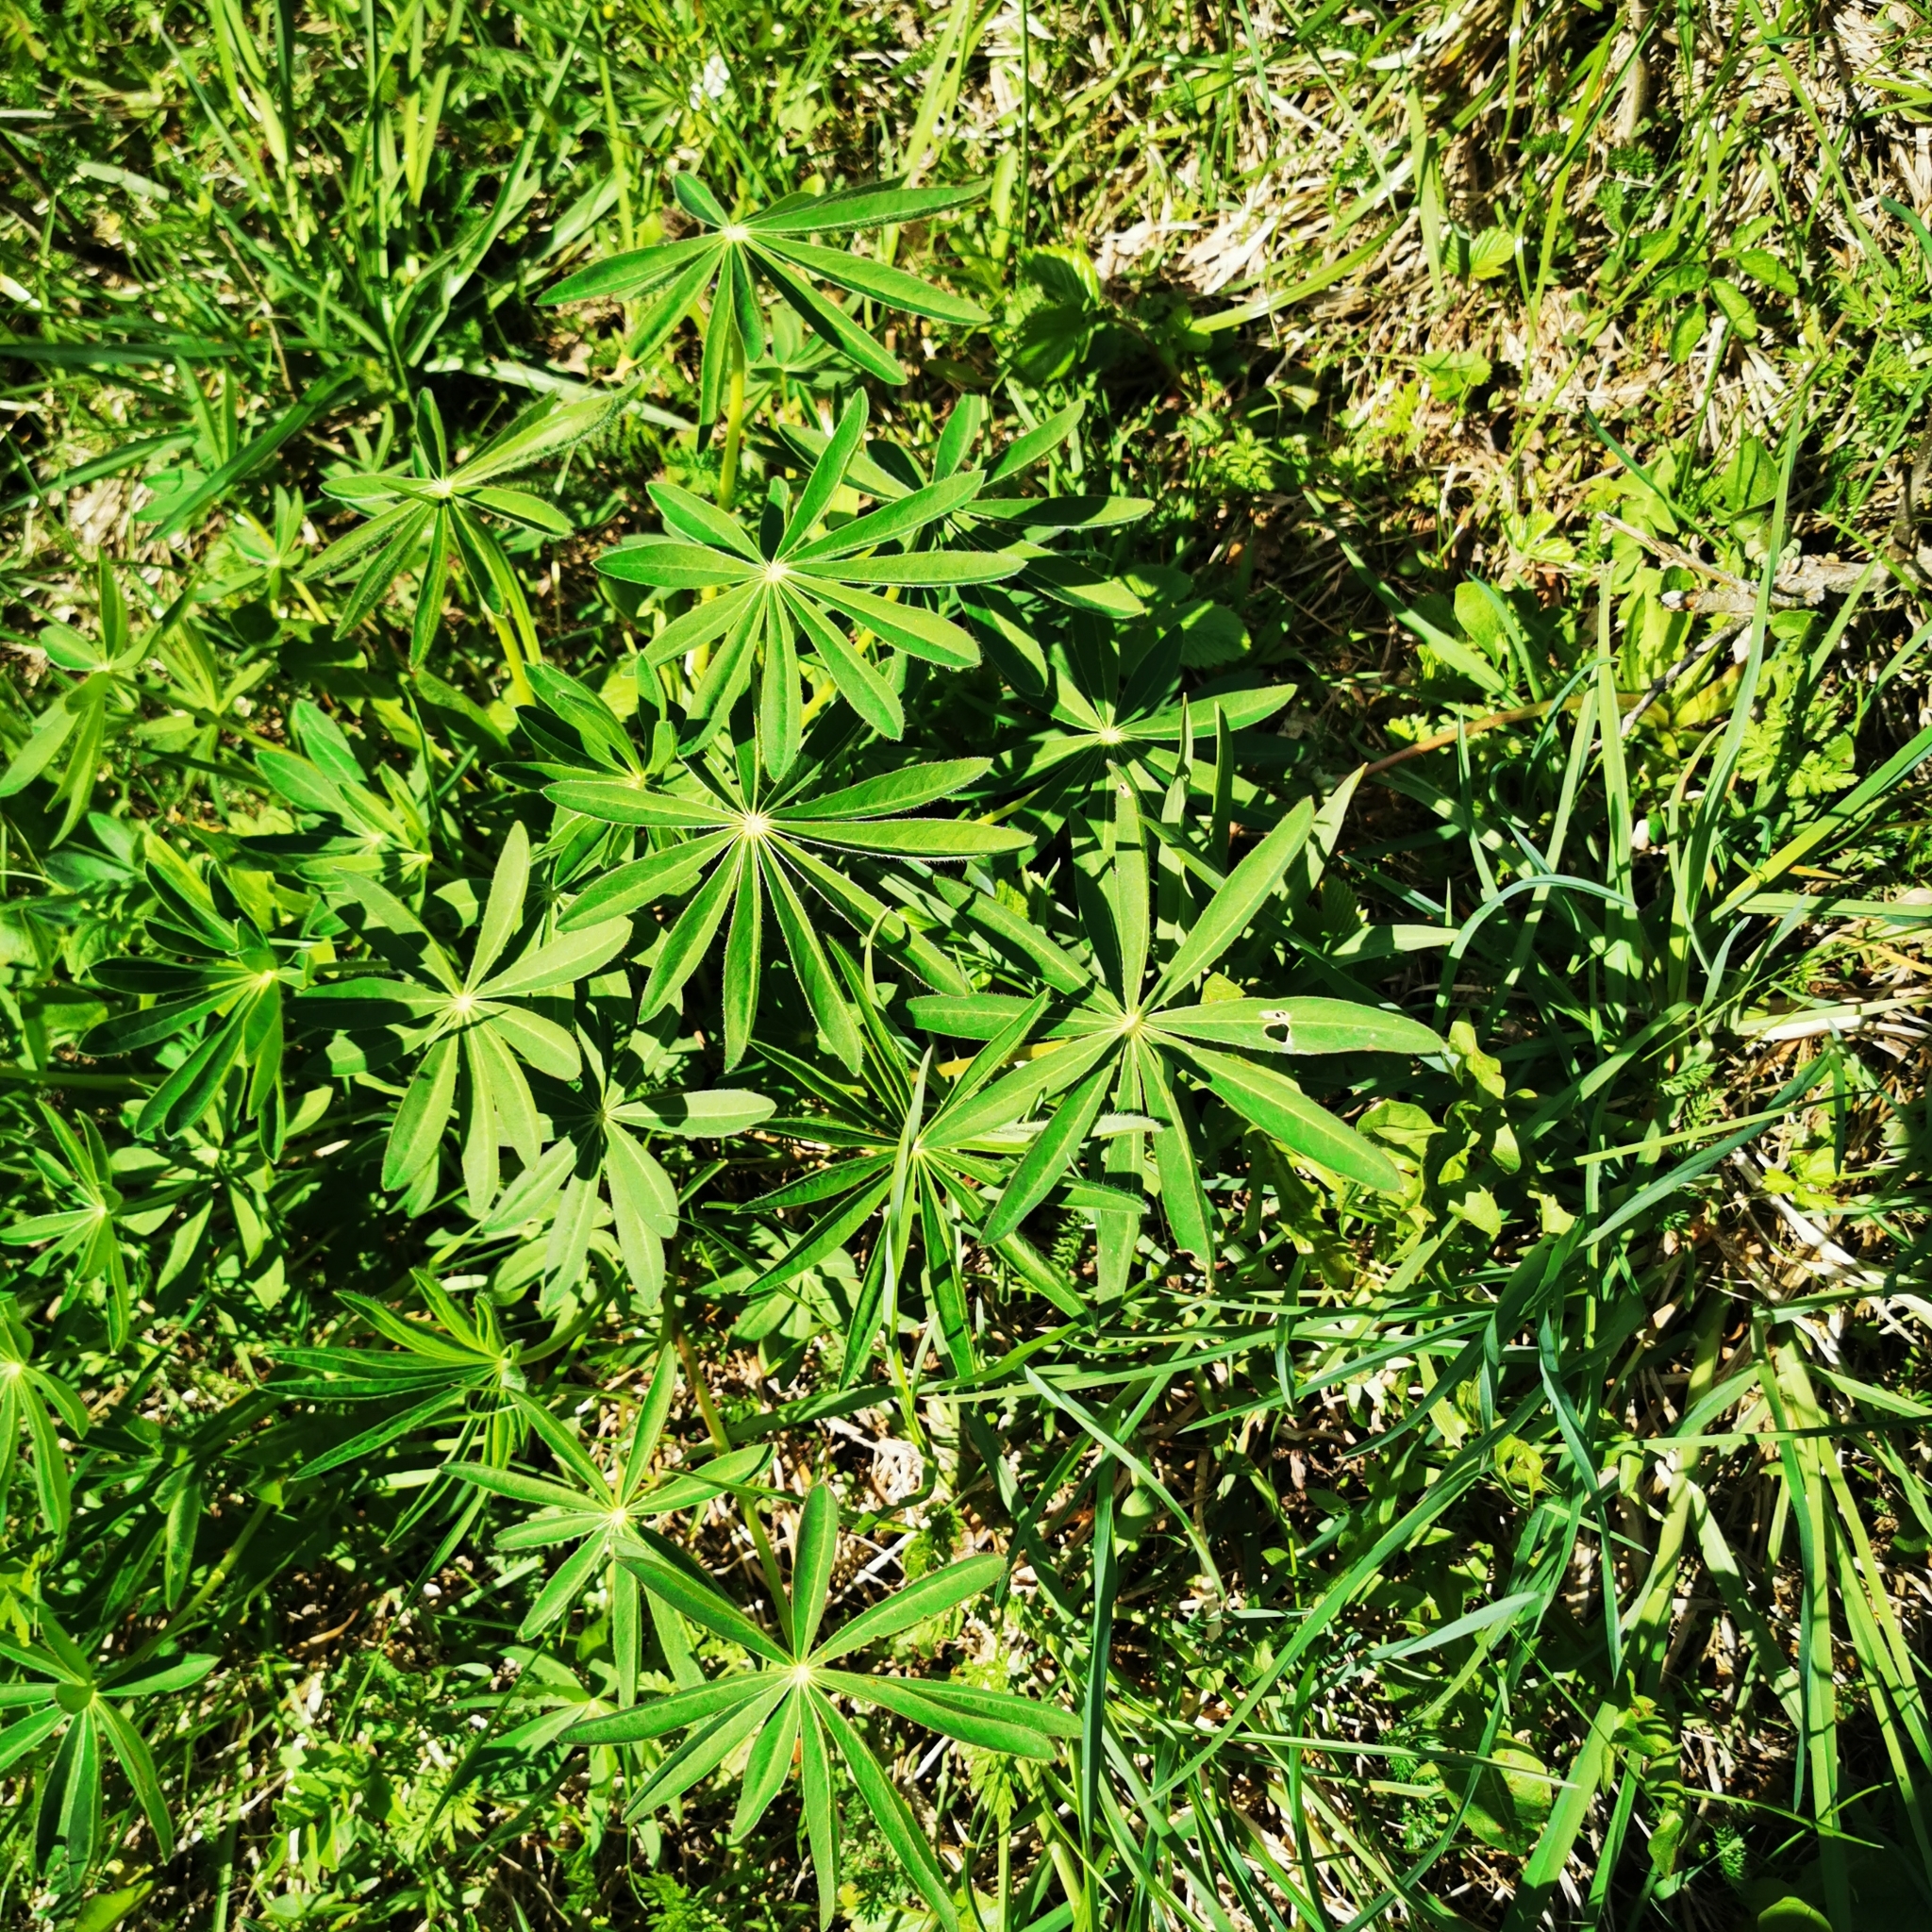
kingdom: Plantae
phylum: Tracheophyta
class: Magnoliopsida
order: Fabales
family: Fabaceae
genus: Lupinus
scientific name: Lupinus polyphyllus
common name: Garden lupin
